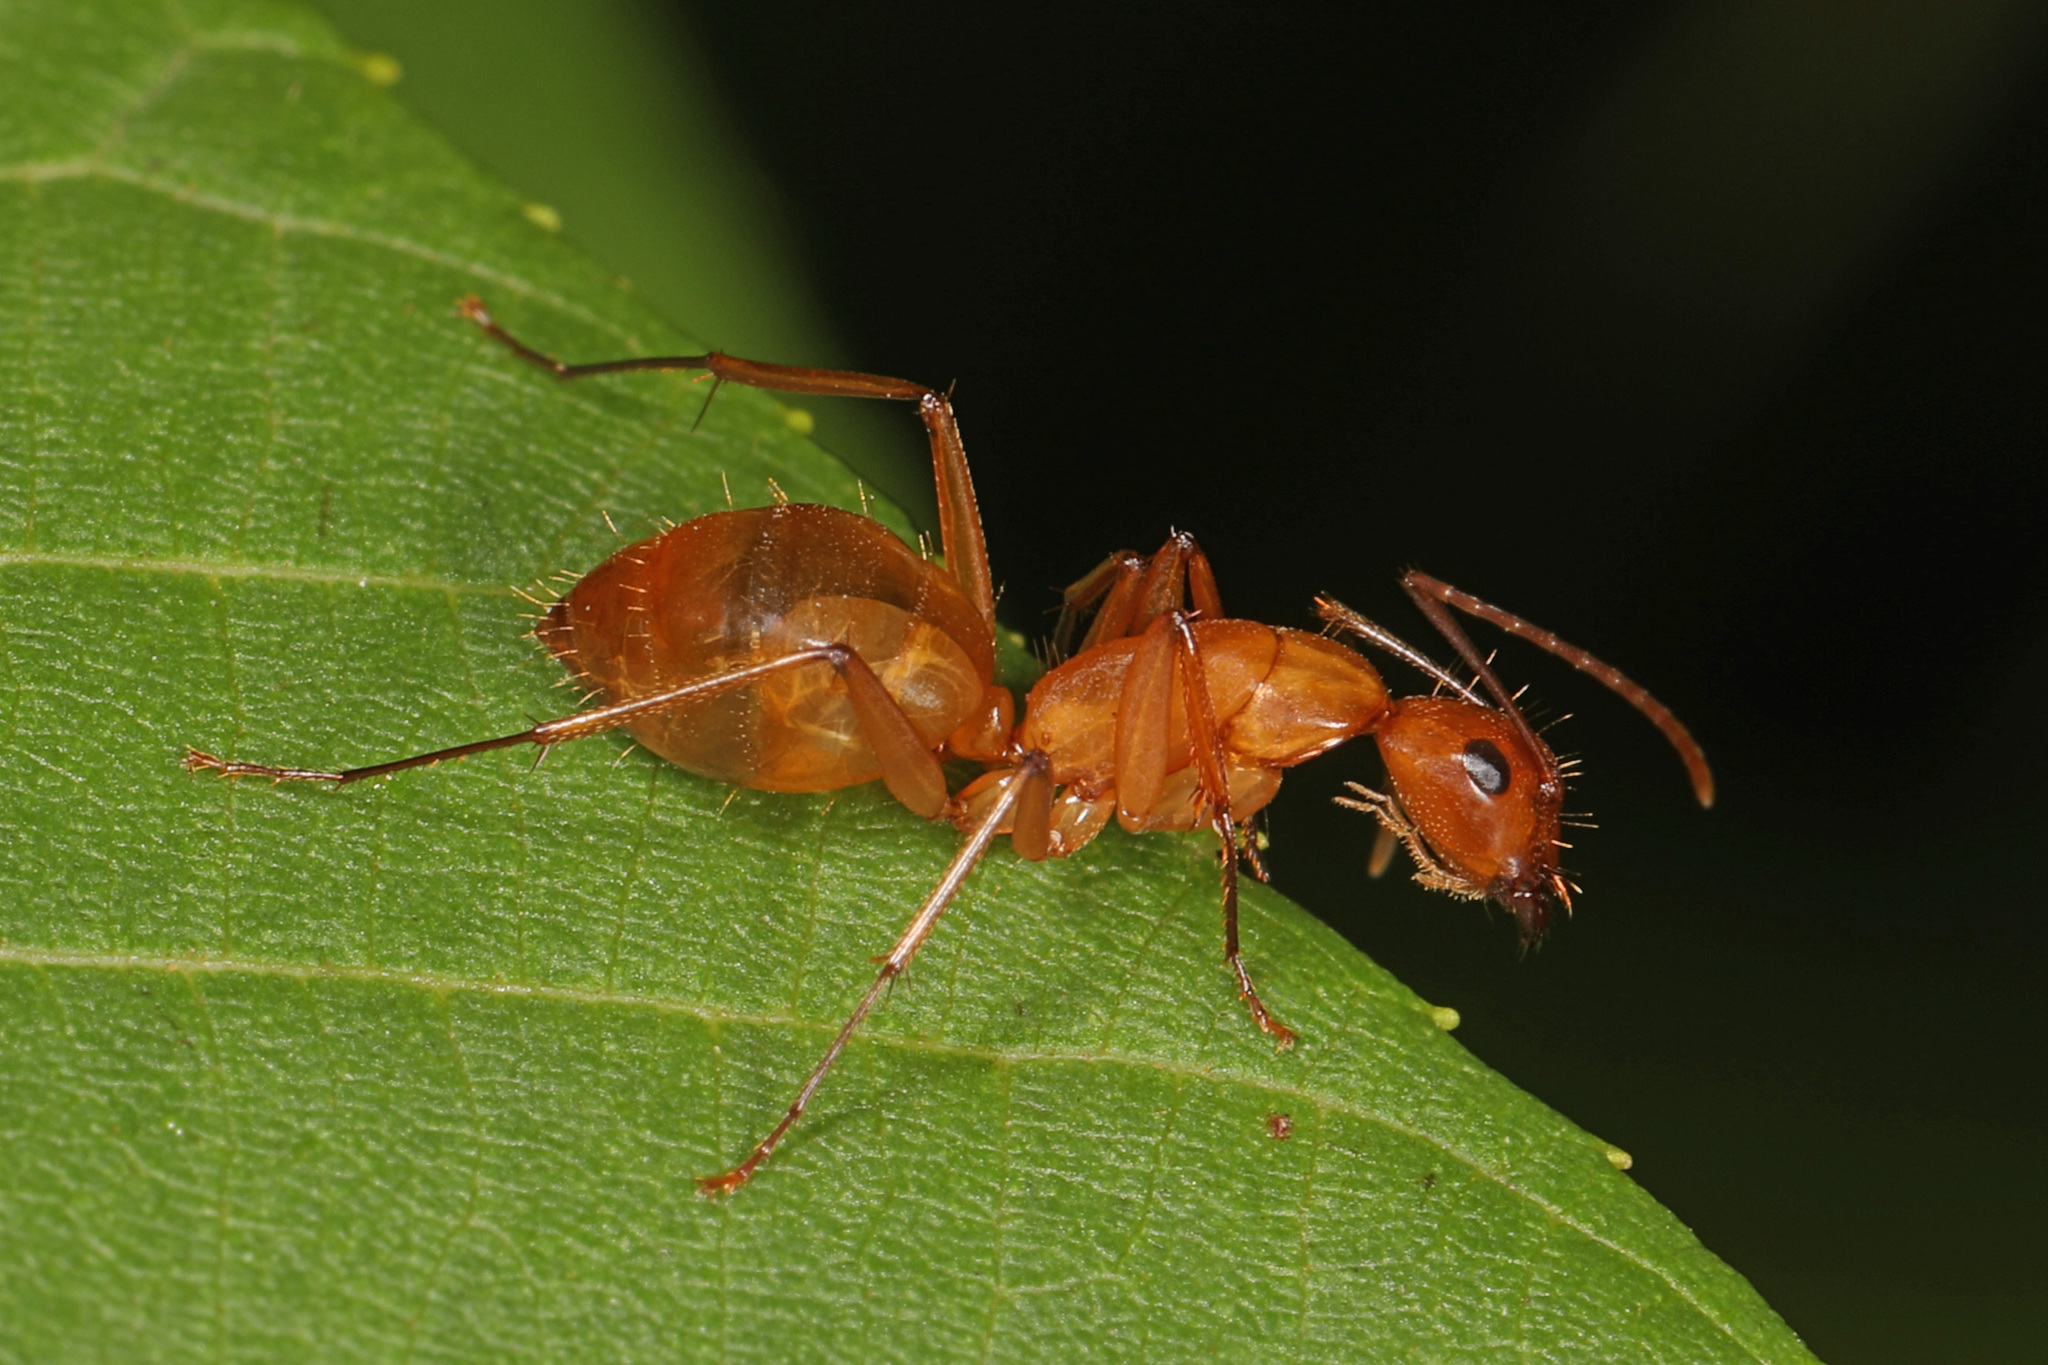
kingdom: Animalia
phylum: Arthropoda
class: Insecta
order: Hymenoptera
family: Formicidae
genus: Camponotus
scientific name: Camponotus castaneus
